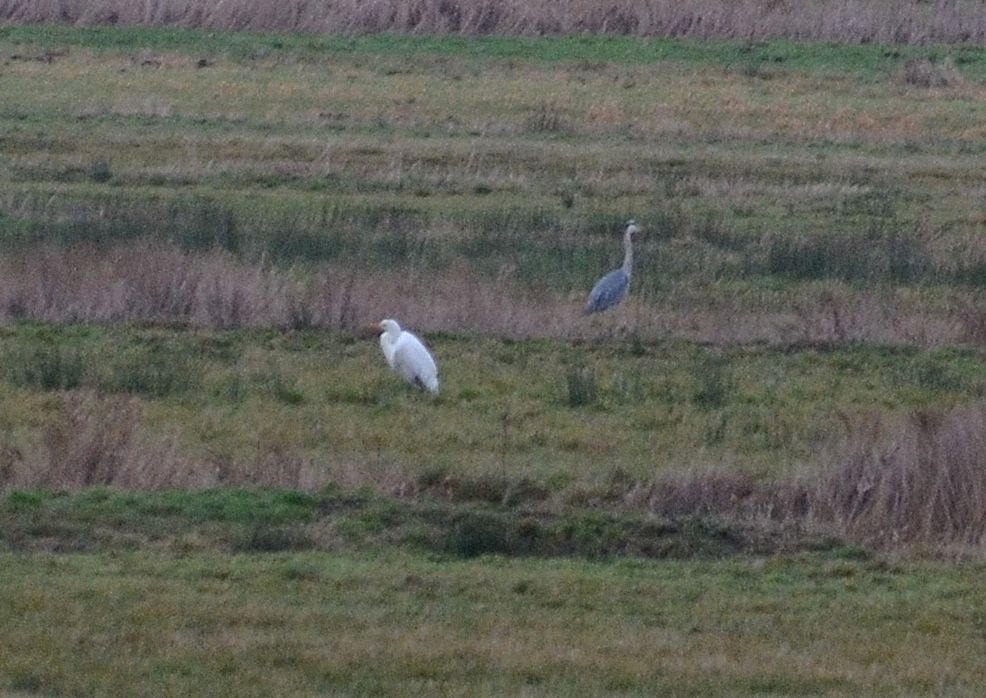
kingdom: Animalia
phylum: Chordata
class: Aves
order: Pelecaniformes
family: Ardeidae
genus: Ardea
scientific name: Ardea alba
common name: Great egret
